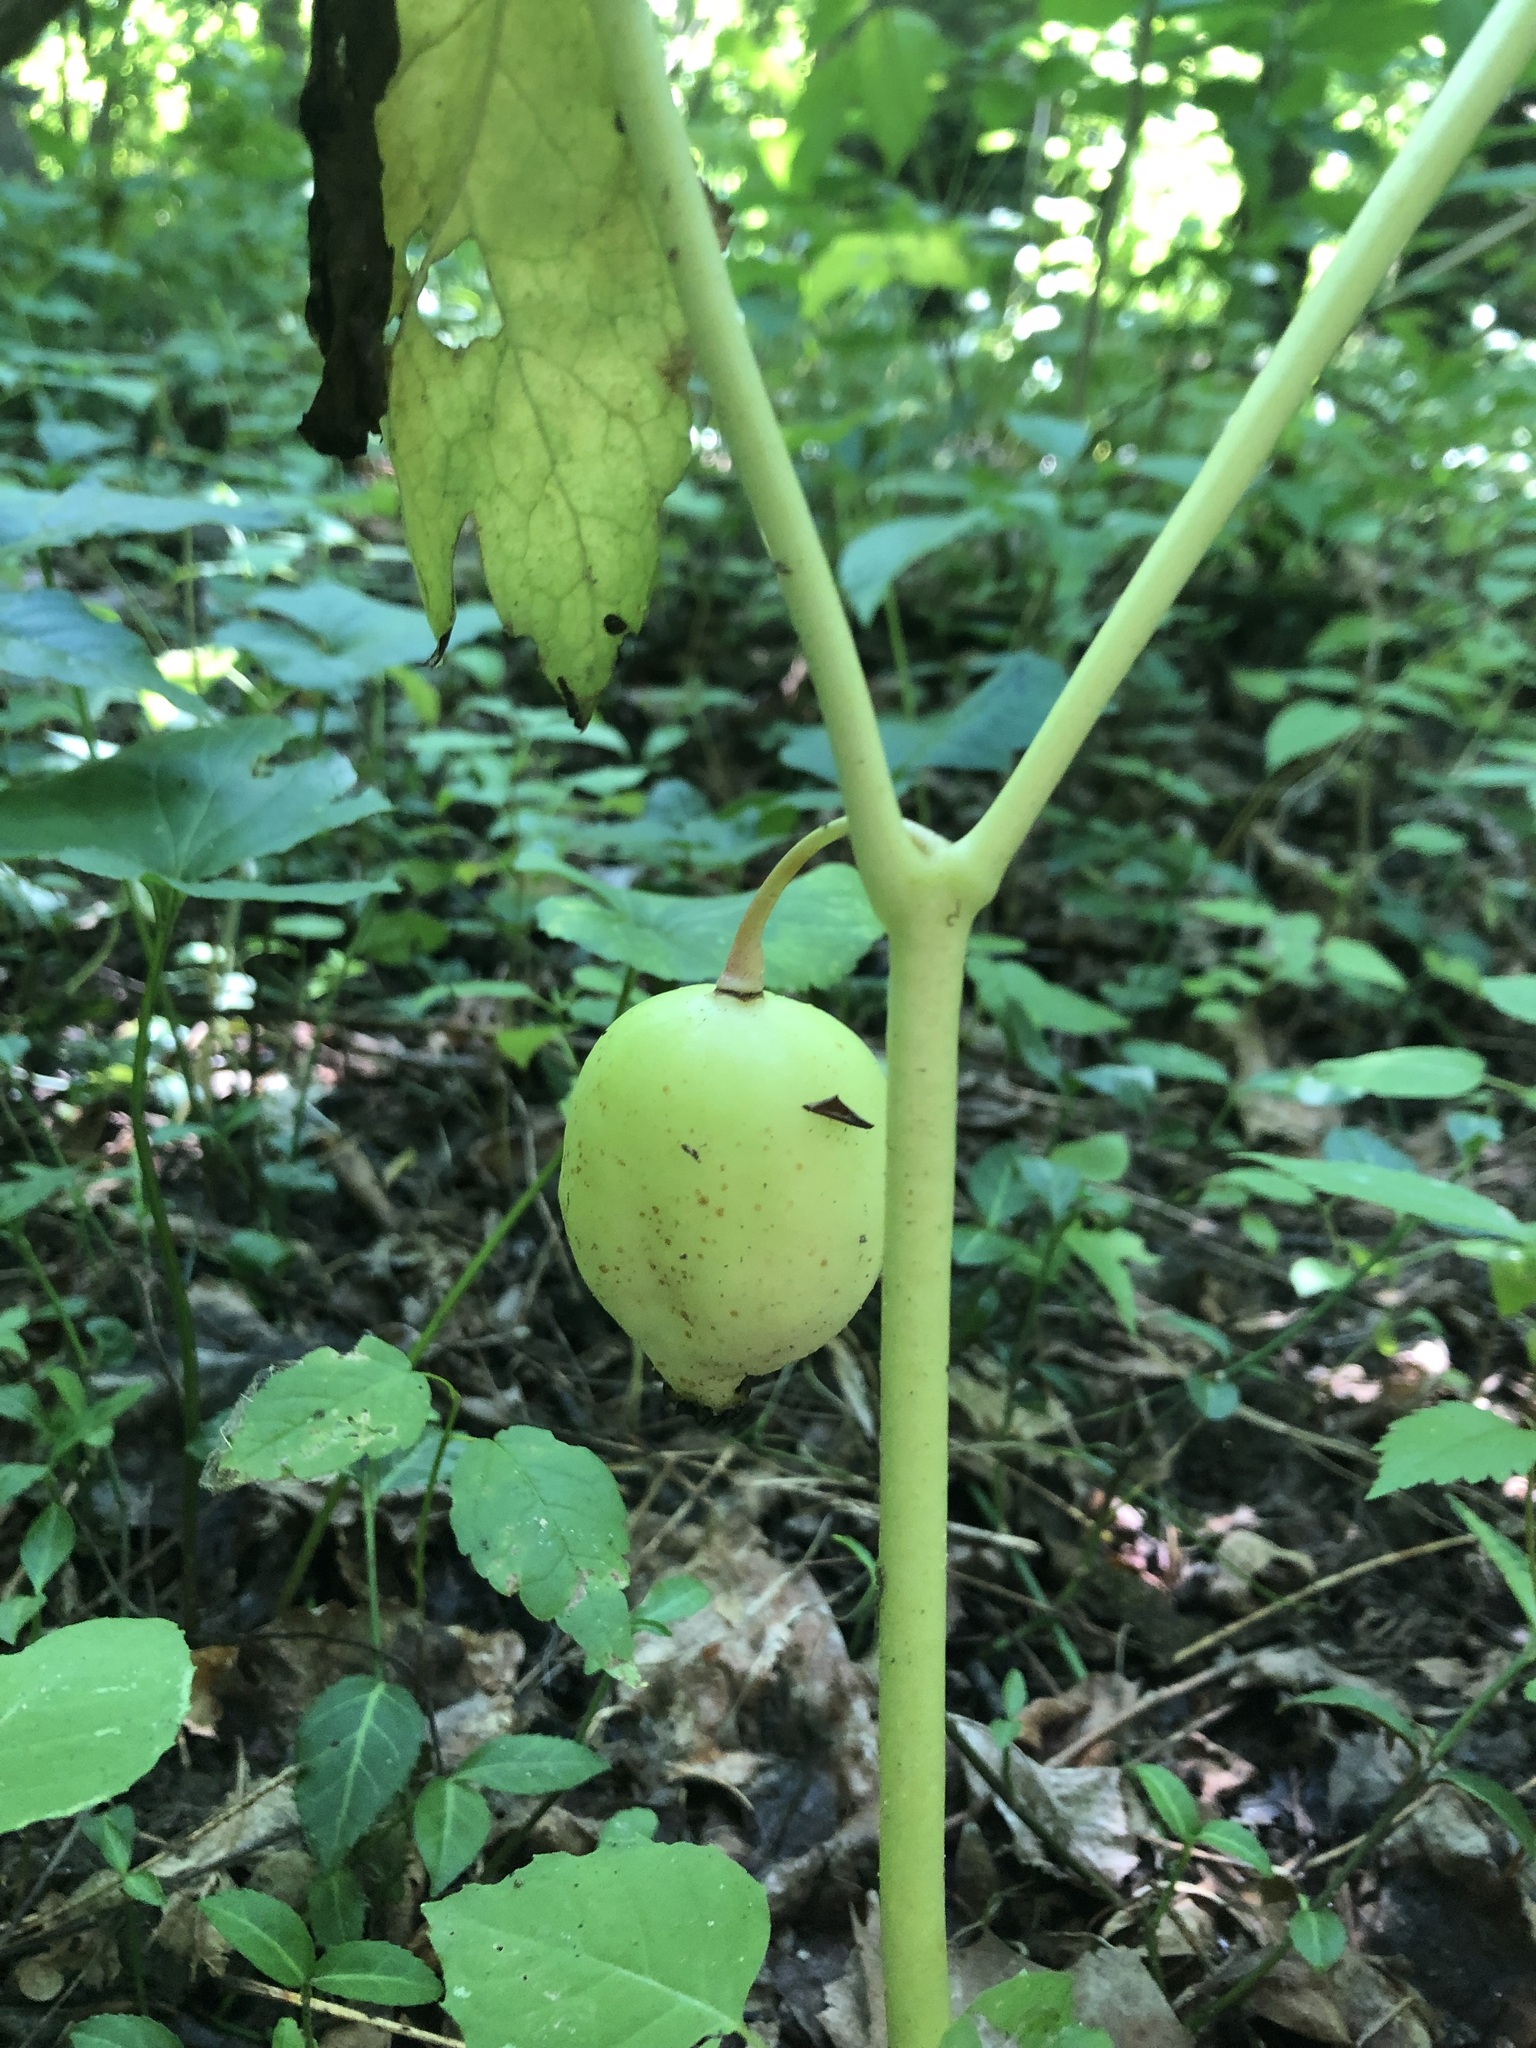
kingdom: Plantae
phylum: Tracheophyta
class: Magnoliopsida
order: Ranunculales
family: Berberidaceae
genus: Podophyllum
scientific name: Podophyllum peltatum
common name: Wild mandrake
